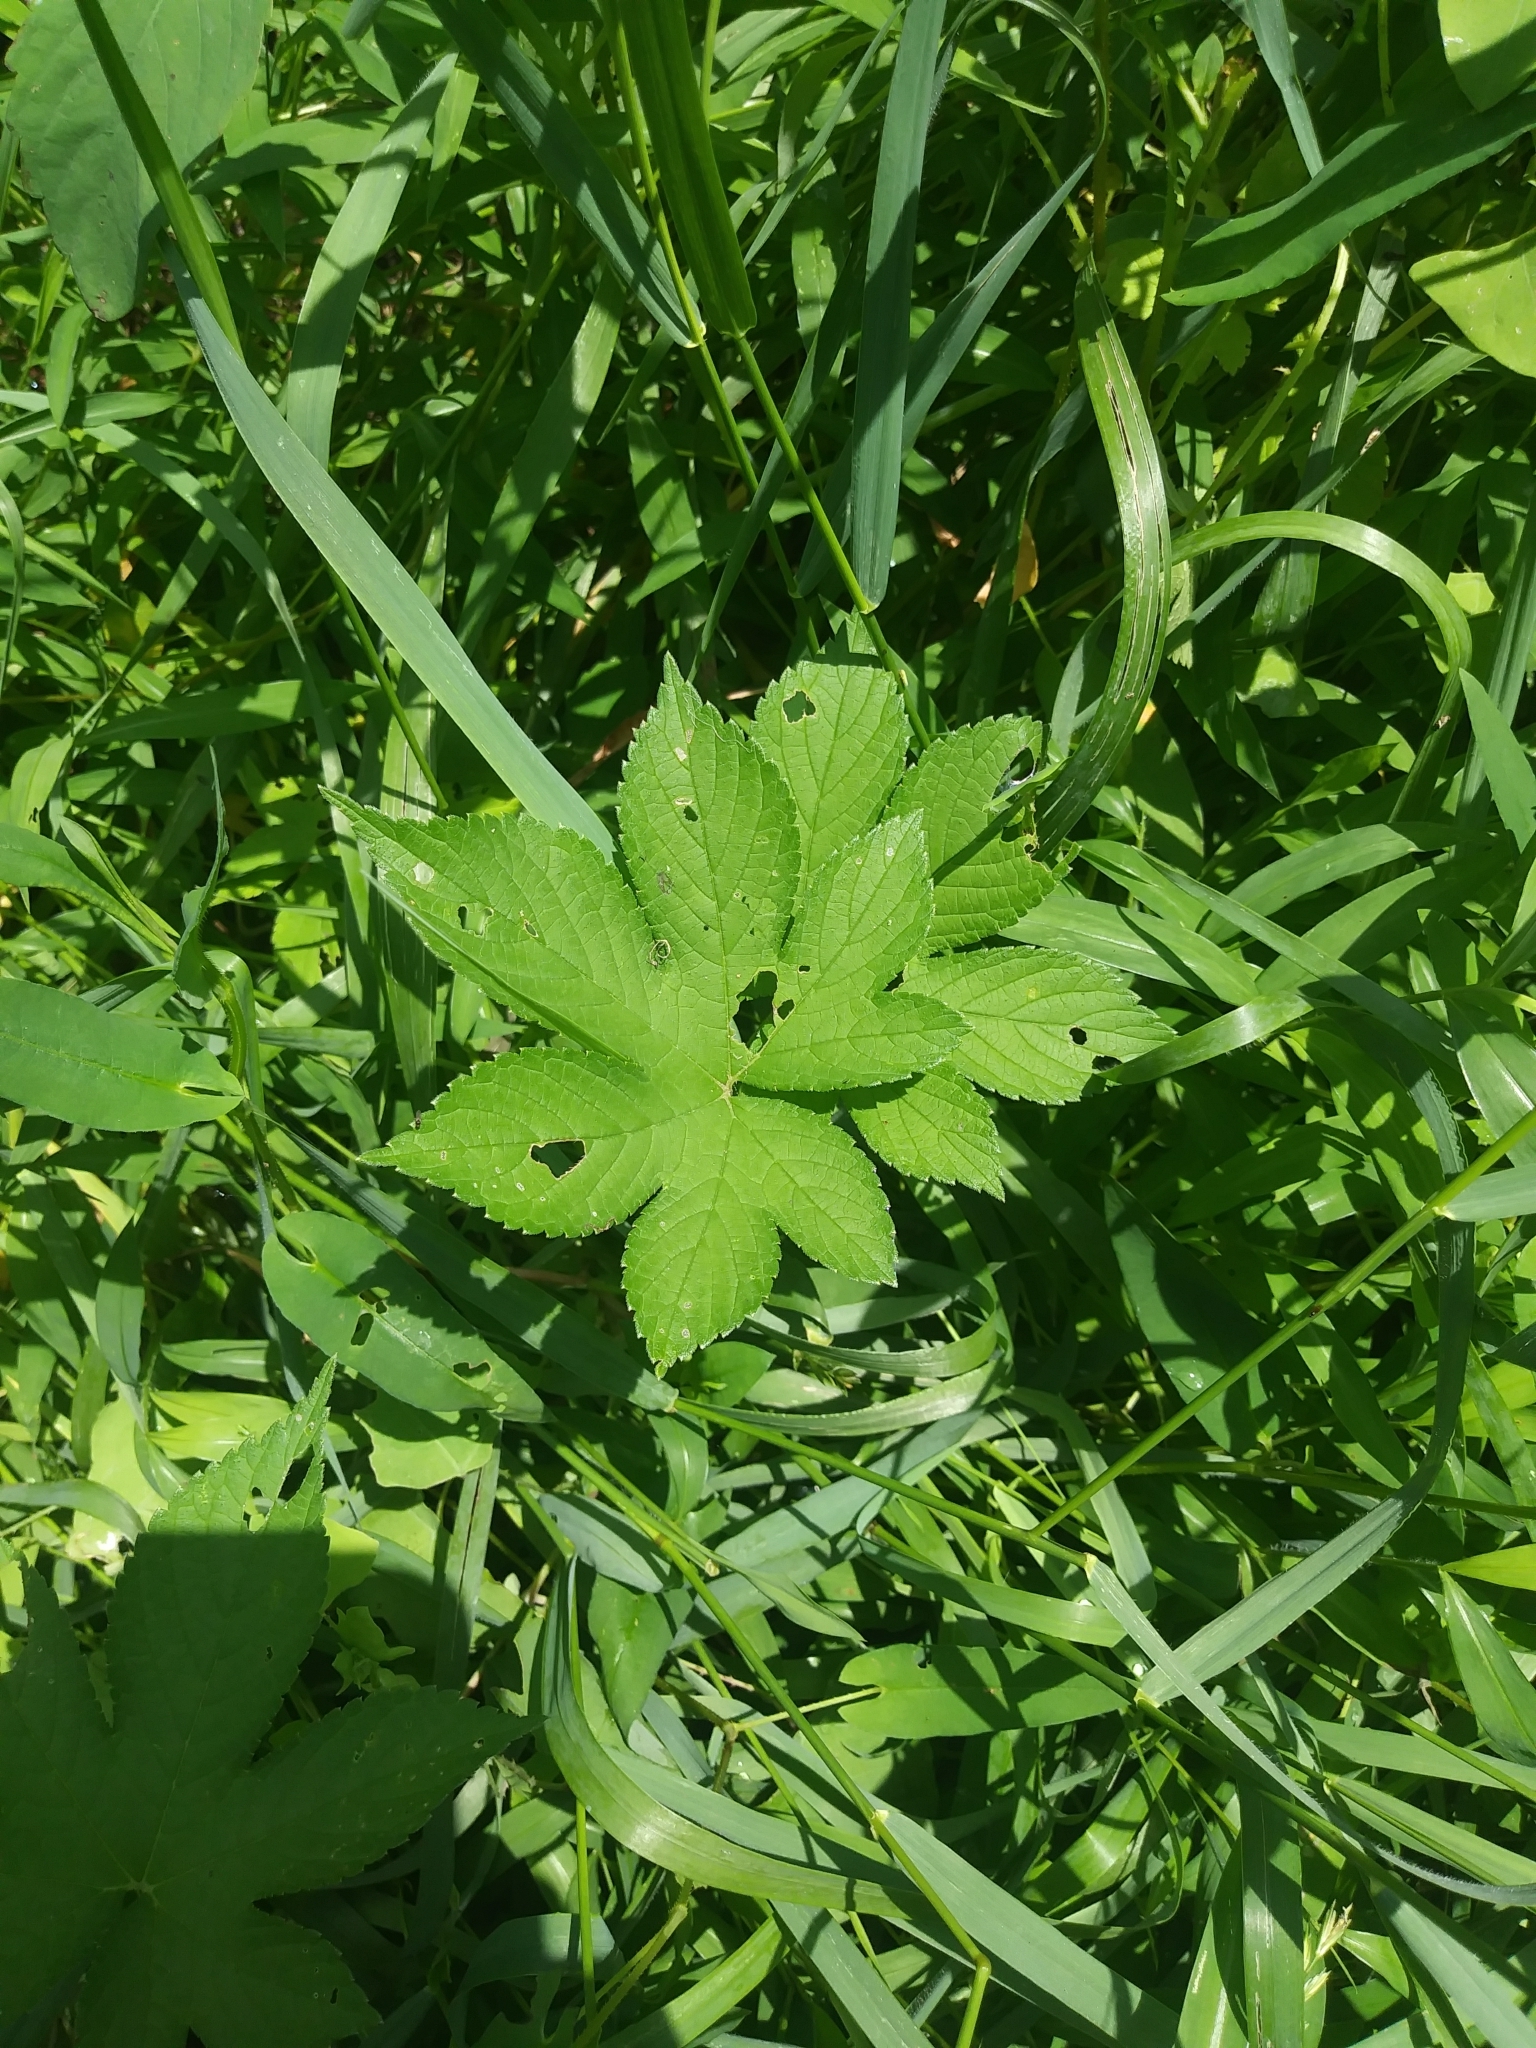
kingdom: Plantae
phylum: Tracheophyta
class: Magnoliopsida
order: Rosales
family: Cannabaceae
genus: Humulus
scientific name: Humulus scandens
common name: Japanese hop
